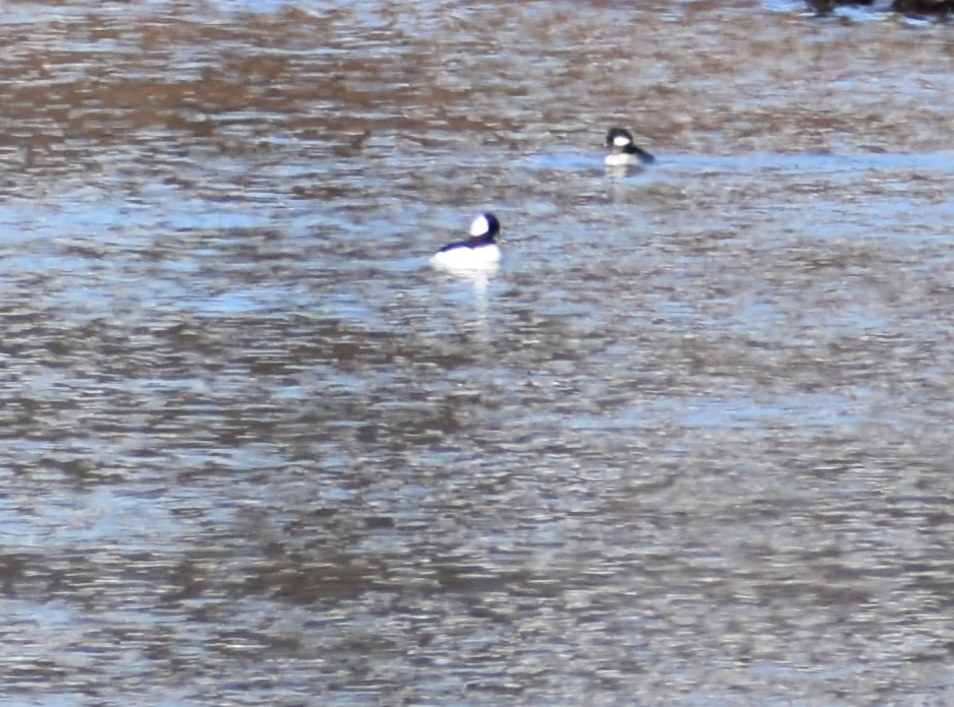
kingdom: Animalia
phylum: Chordata
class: Aves
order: Anseriformes
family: Anatidae
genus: Bucephala
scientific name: Bucephala albeola
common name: Bufflehead
